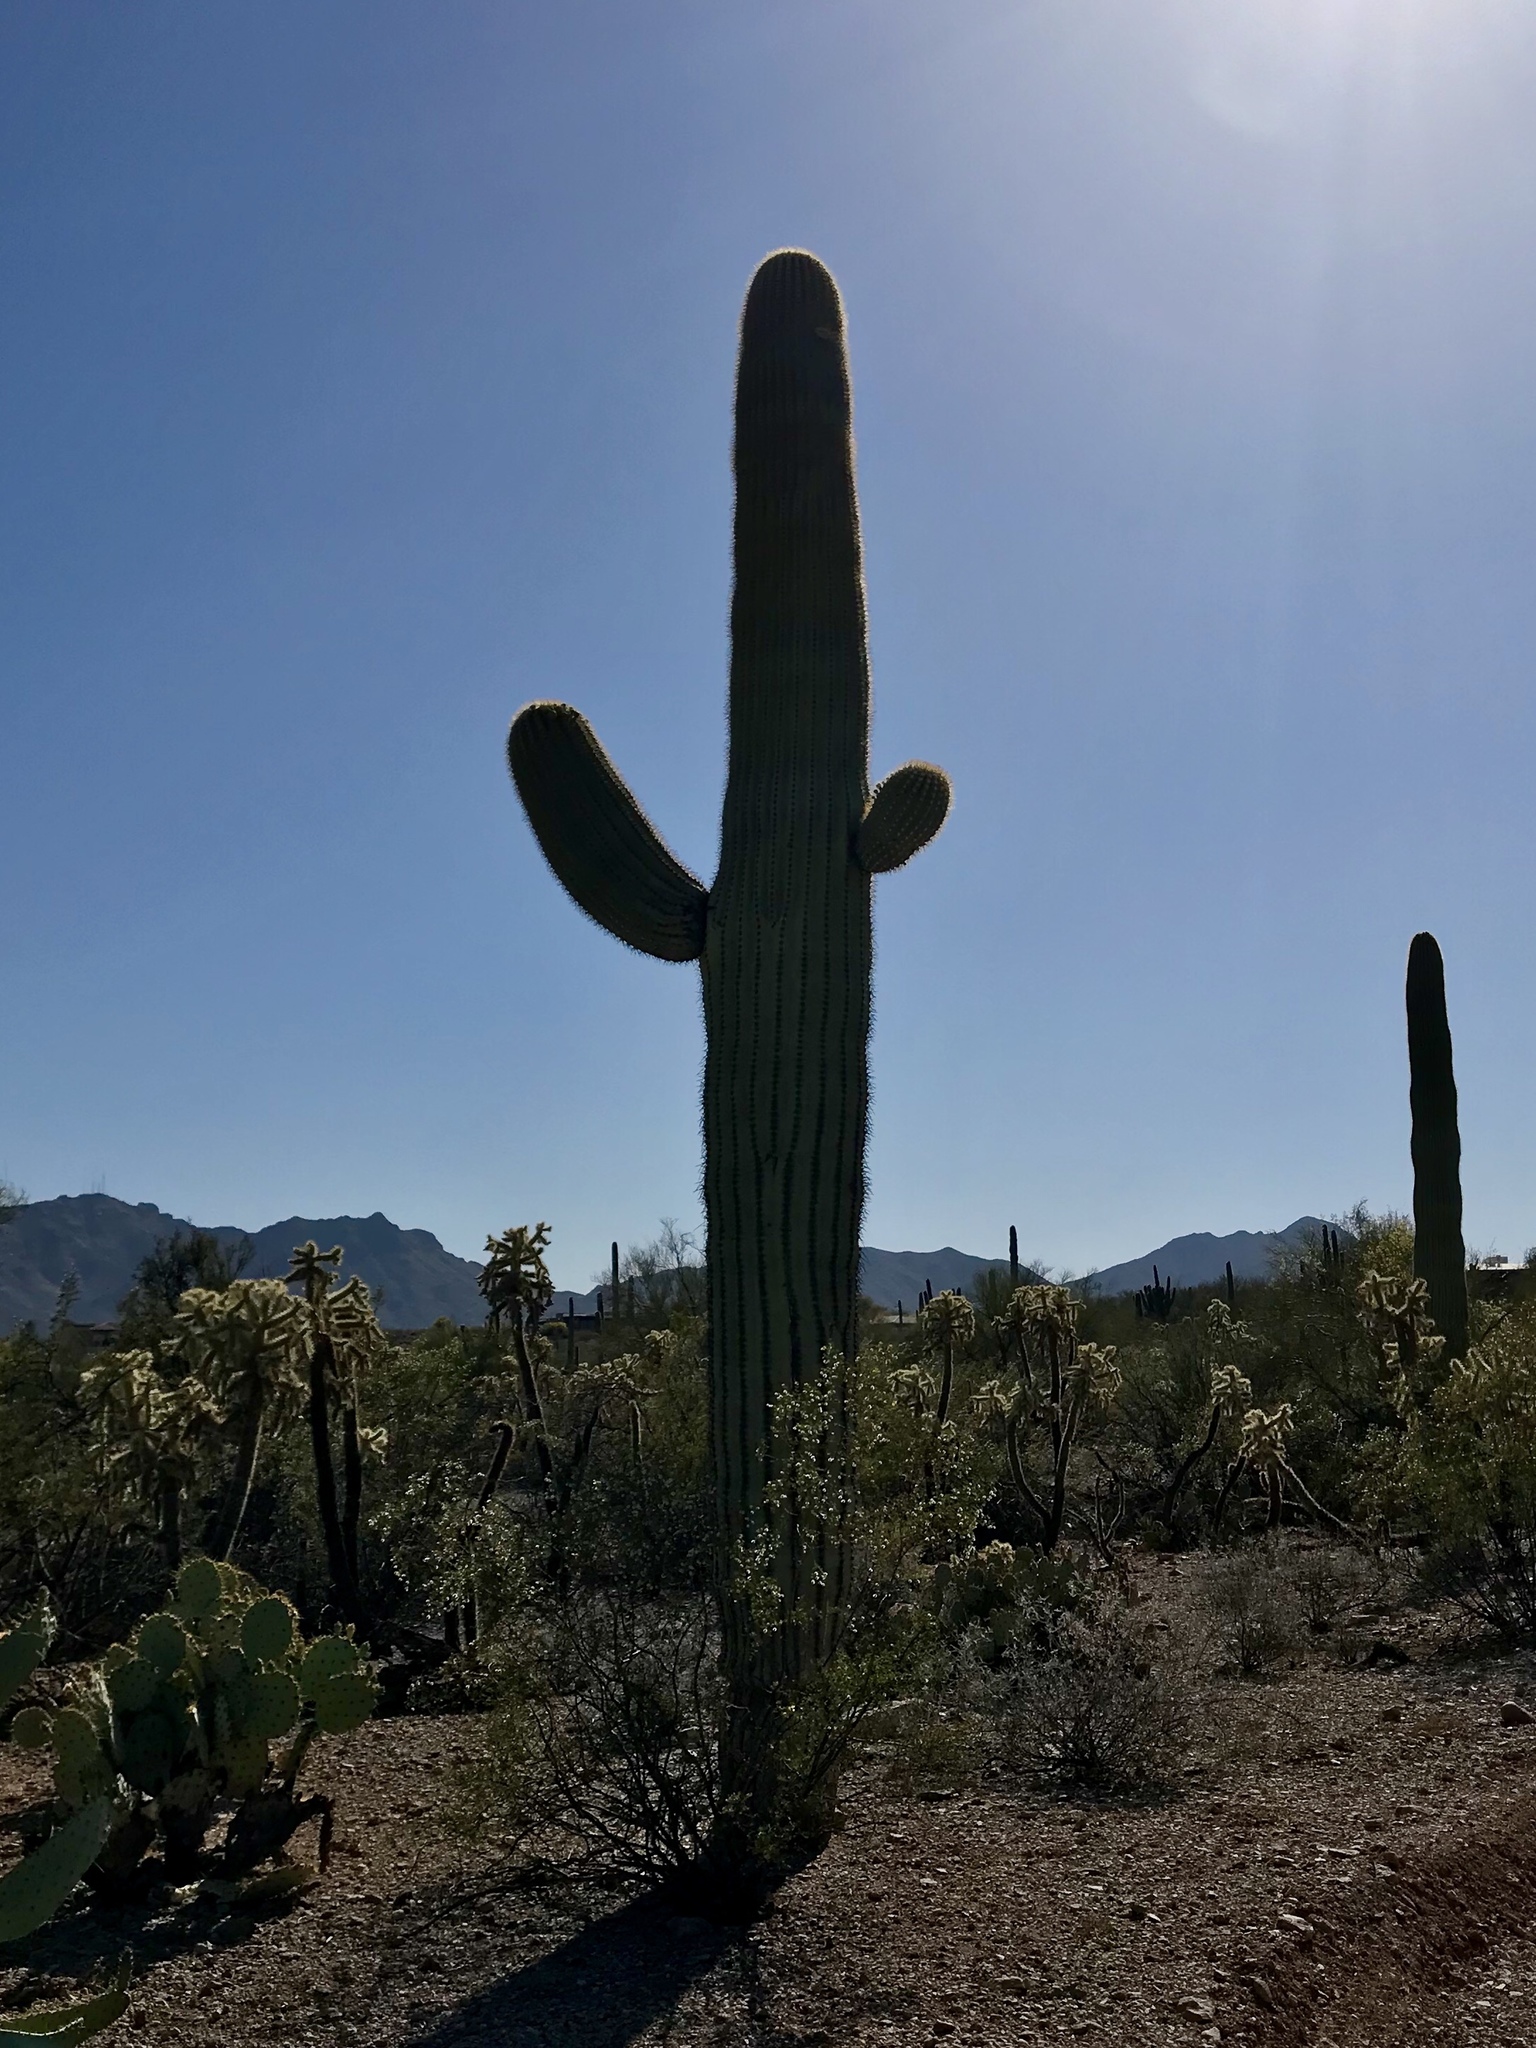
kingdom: Plantae
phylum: Tracheophyta
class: Magnoliopsida
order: Caryophyllales
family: Cactaceae
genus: Carnegiea
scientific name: Carnegiea gigantea
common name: Saguaro
